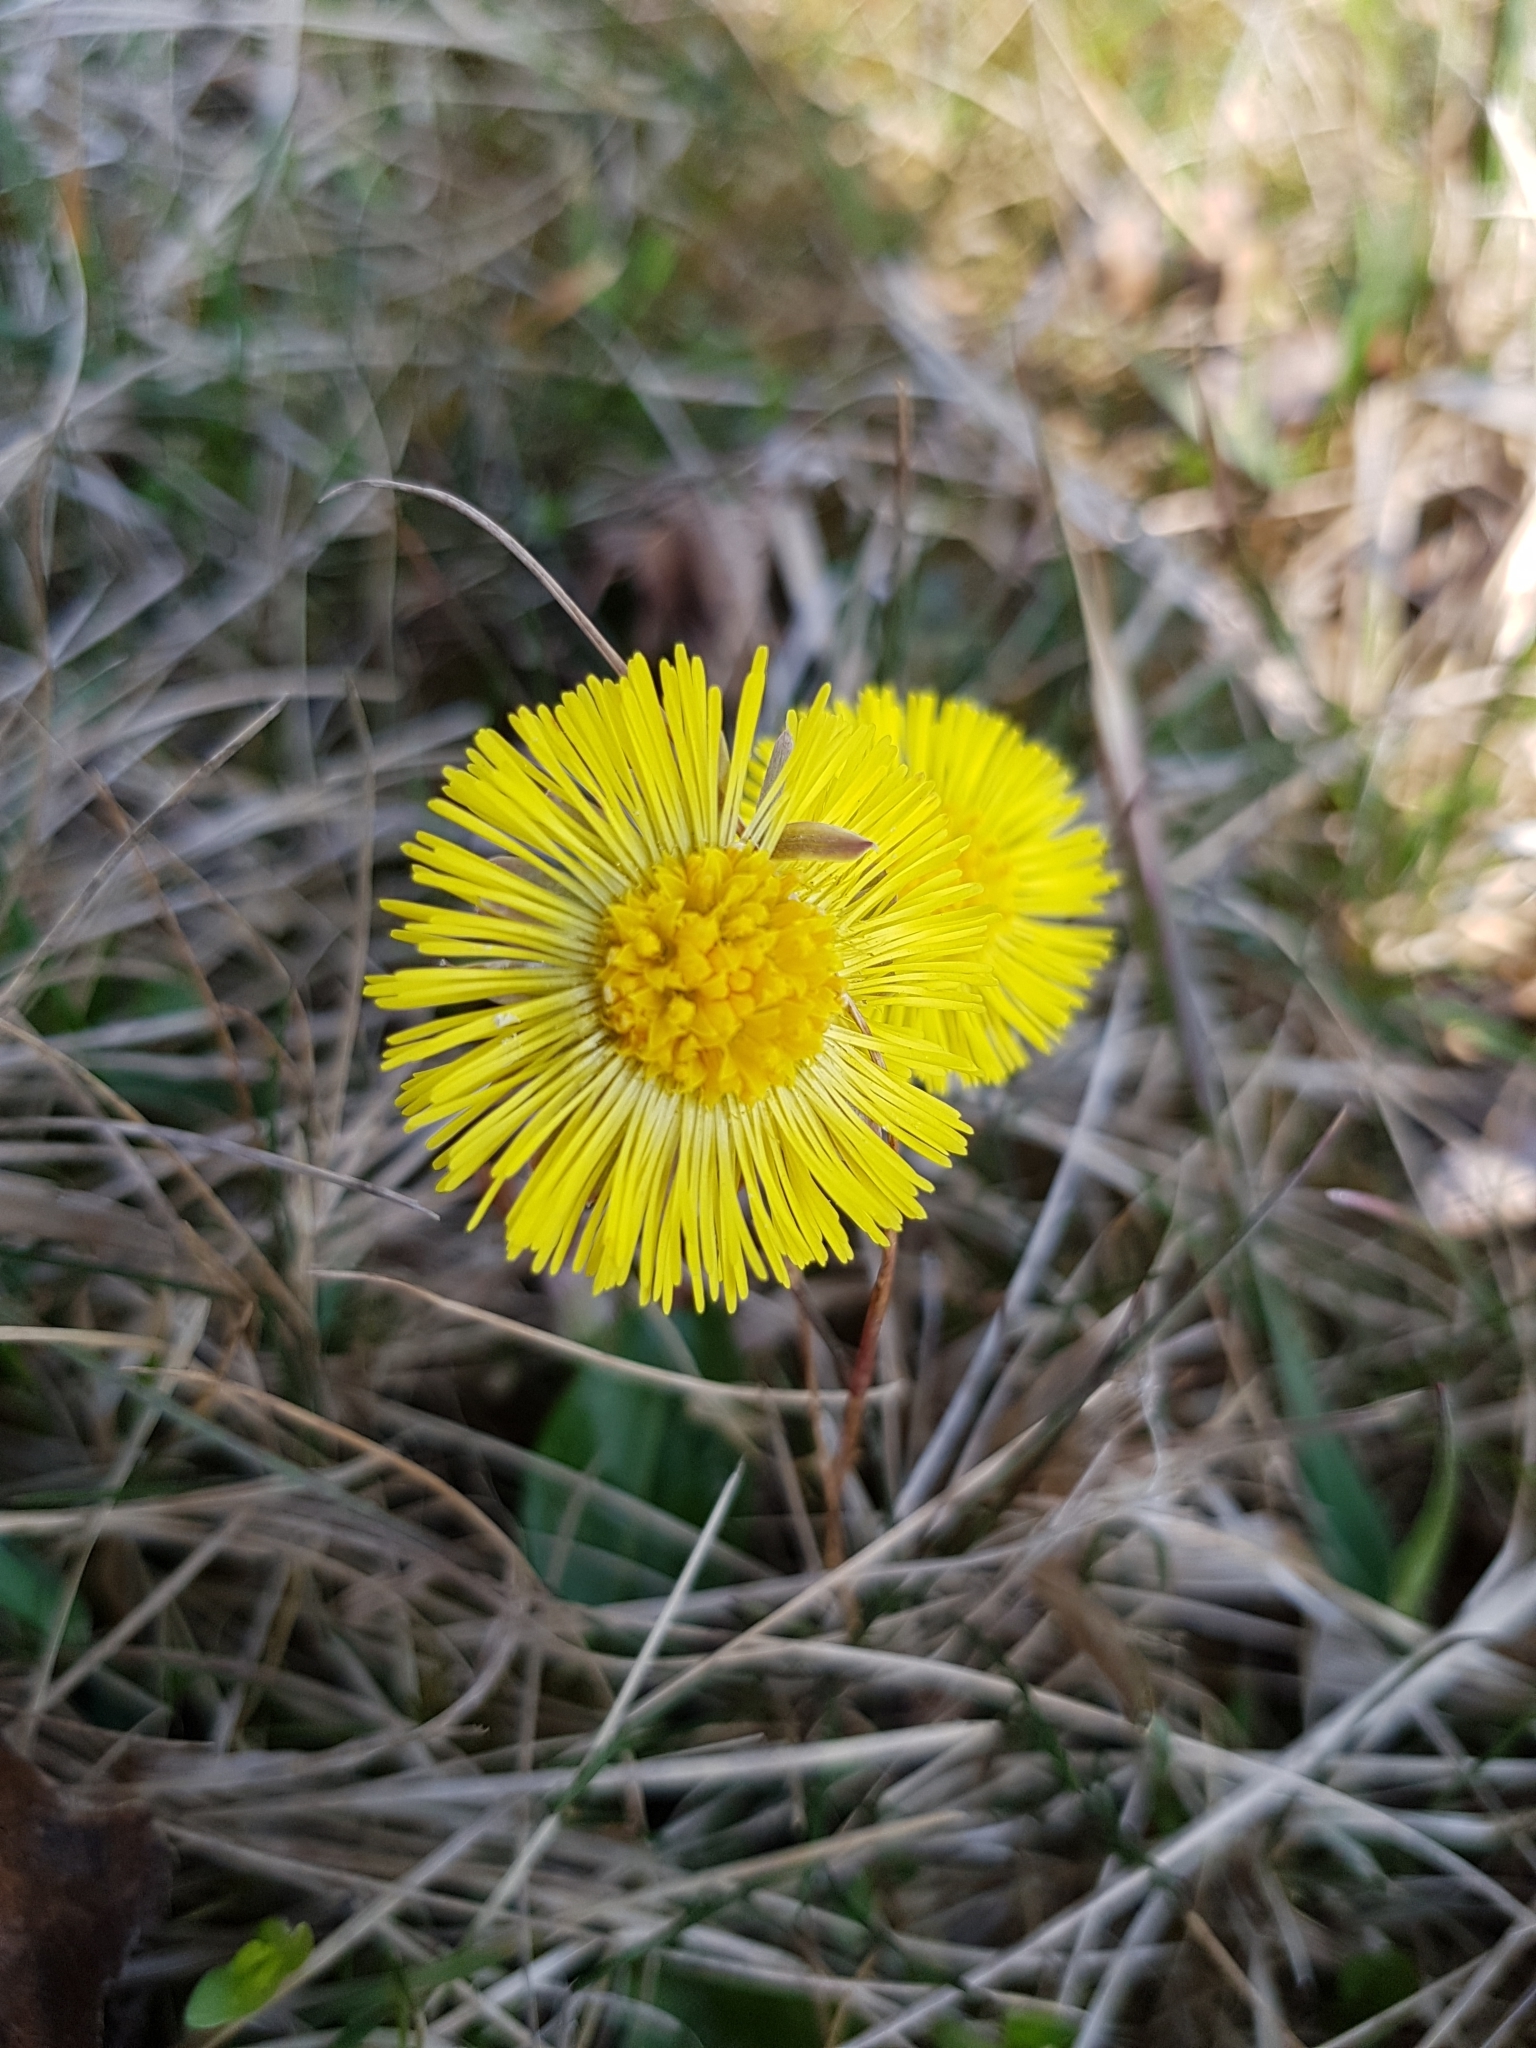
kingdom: Plantae
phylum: Tracheophyta
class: Magnoliopsida
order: Asterales
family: Asteraceae
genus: Tussilago
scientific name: Tussilago farfara
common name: Coltsfoot
